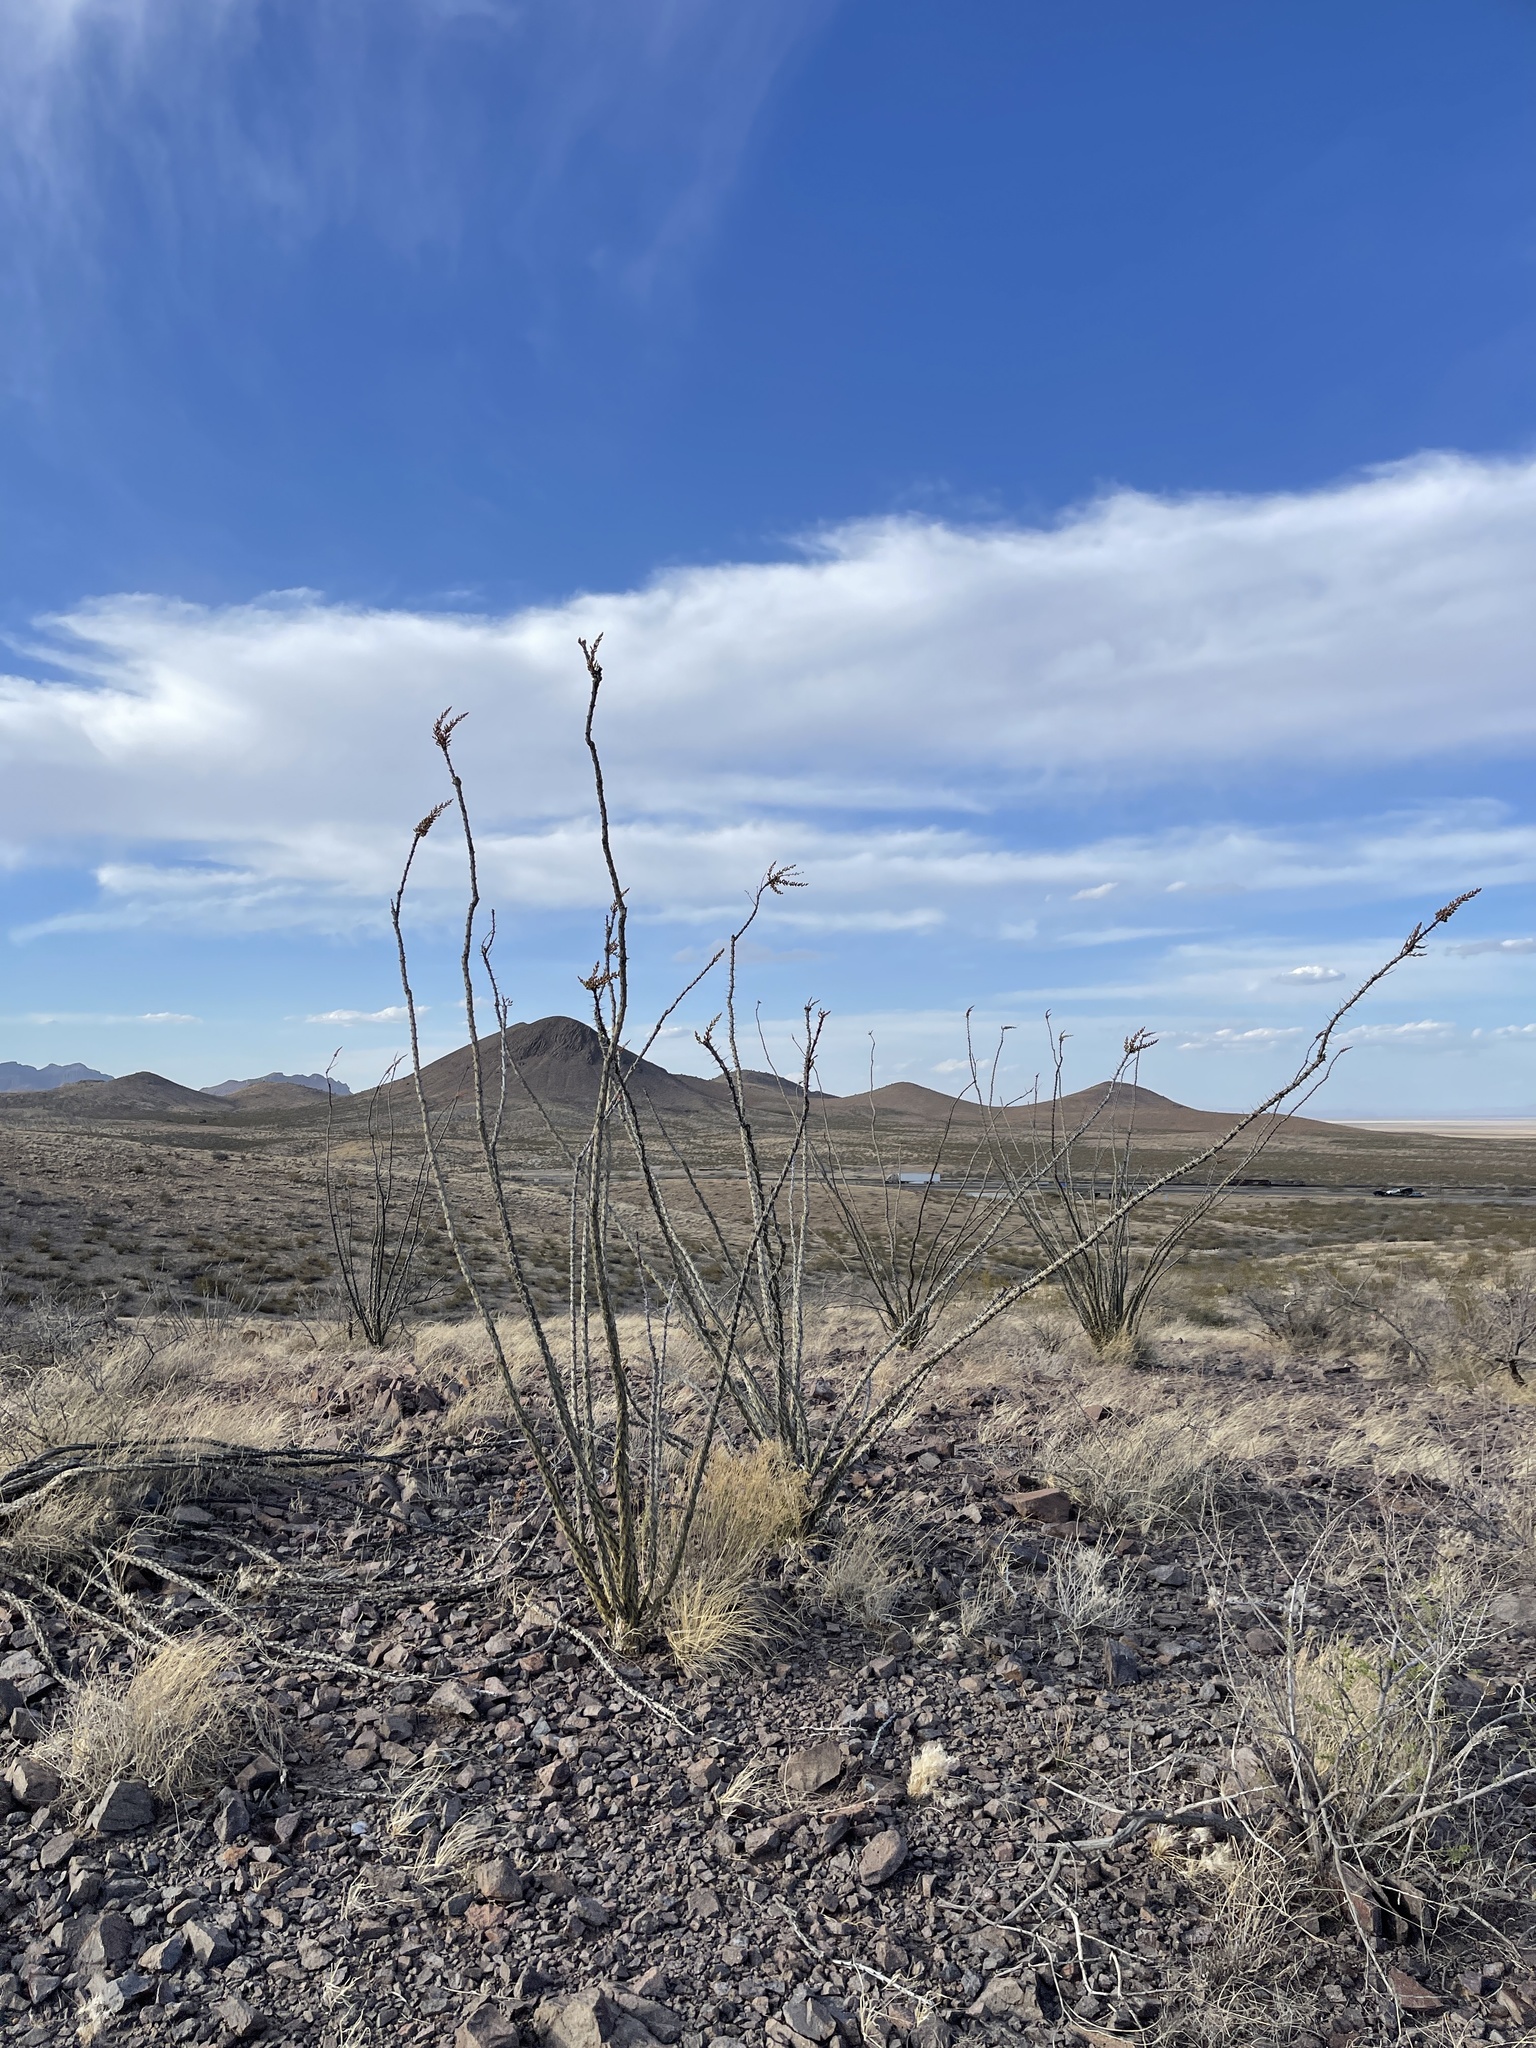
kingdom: Plantae
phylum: Tracheophyta
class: Magnoliopsida
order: Ericales
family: Fouquieriaceae
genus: Fouquieria
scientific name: Fouquieria splendens
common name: Vine-cactus
